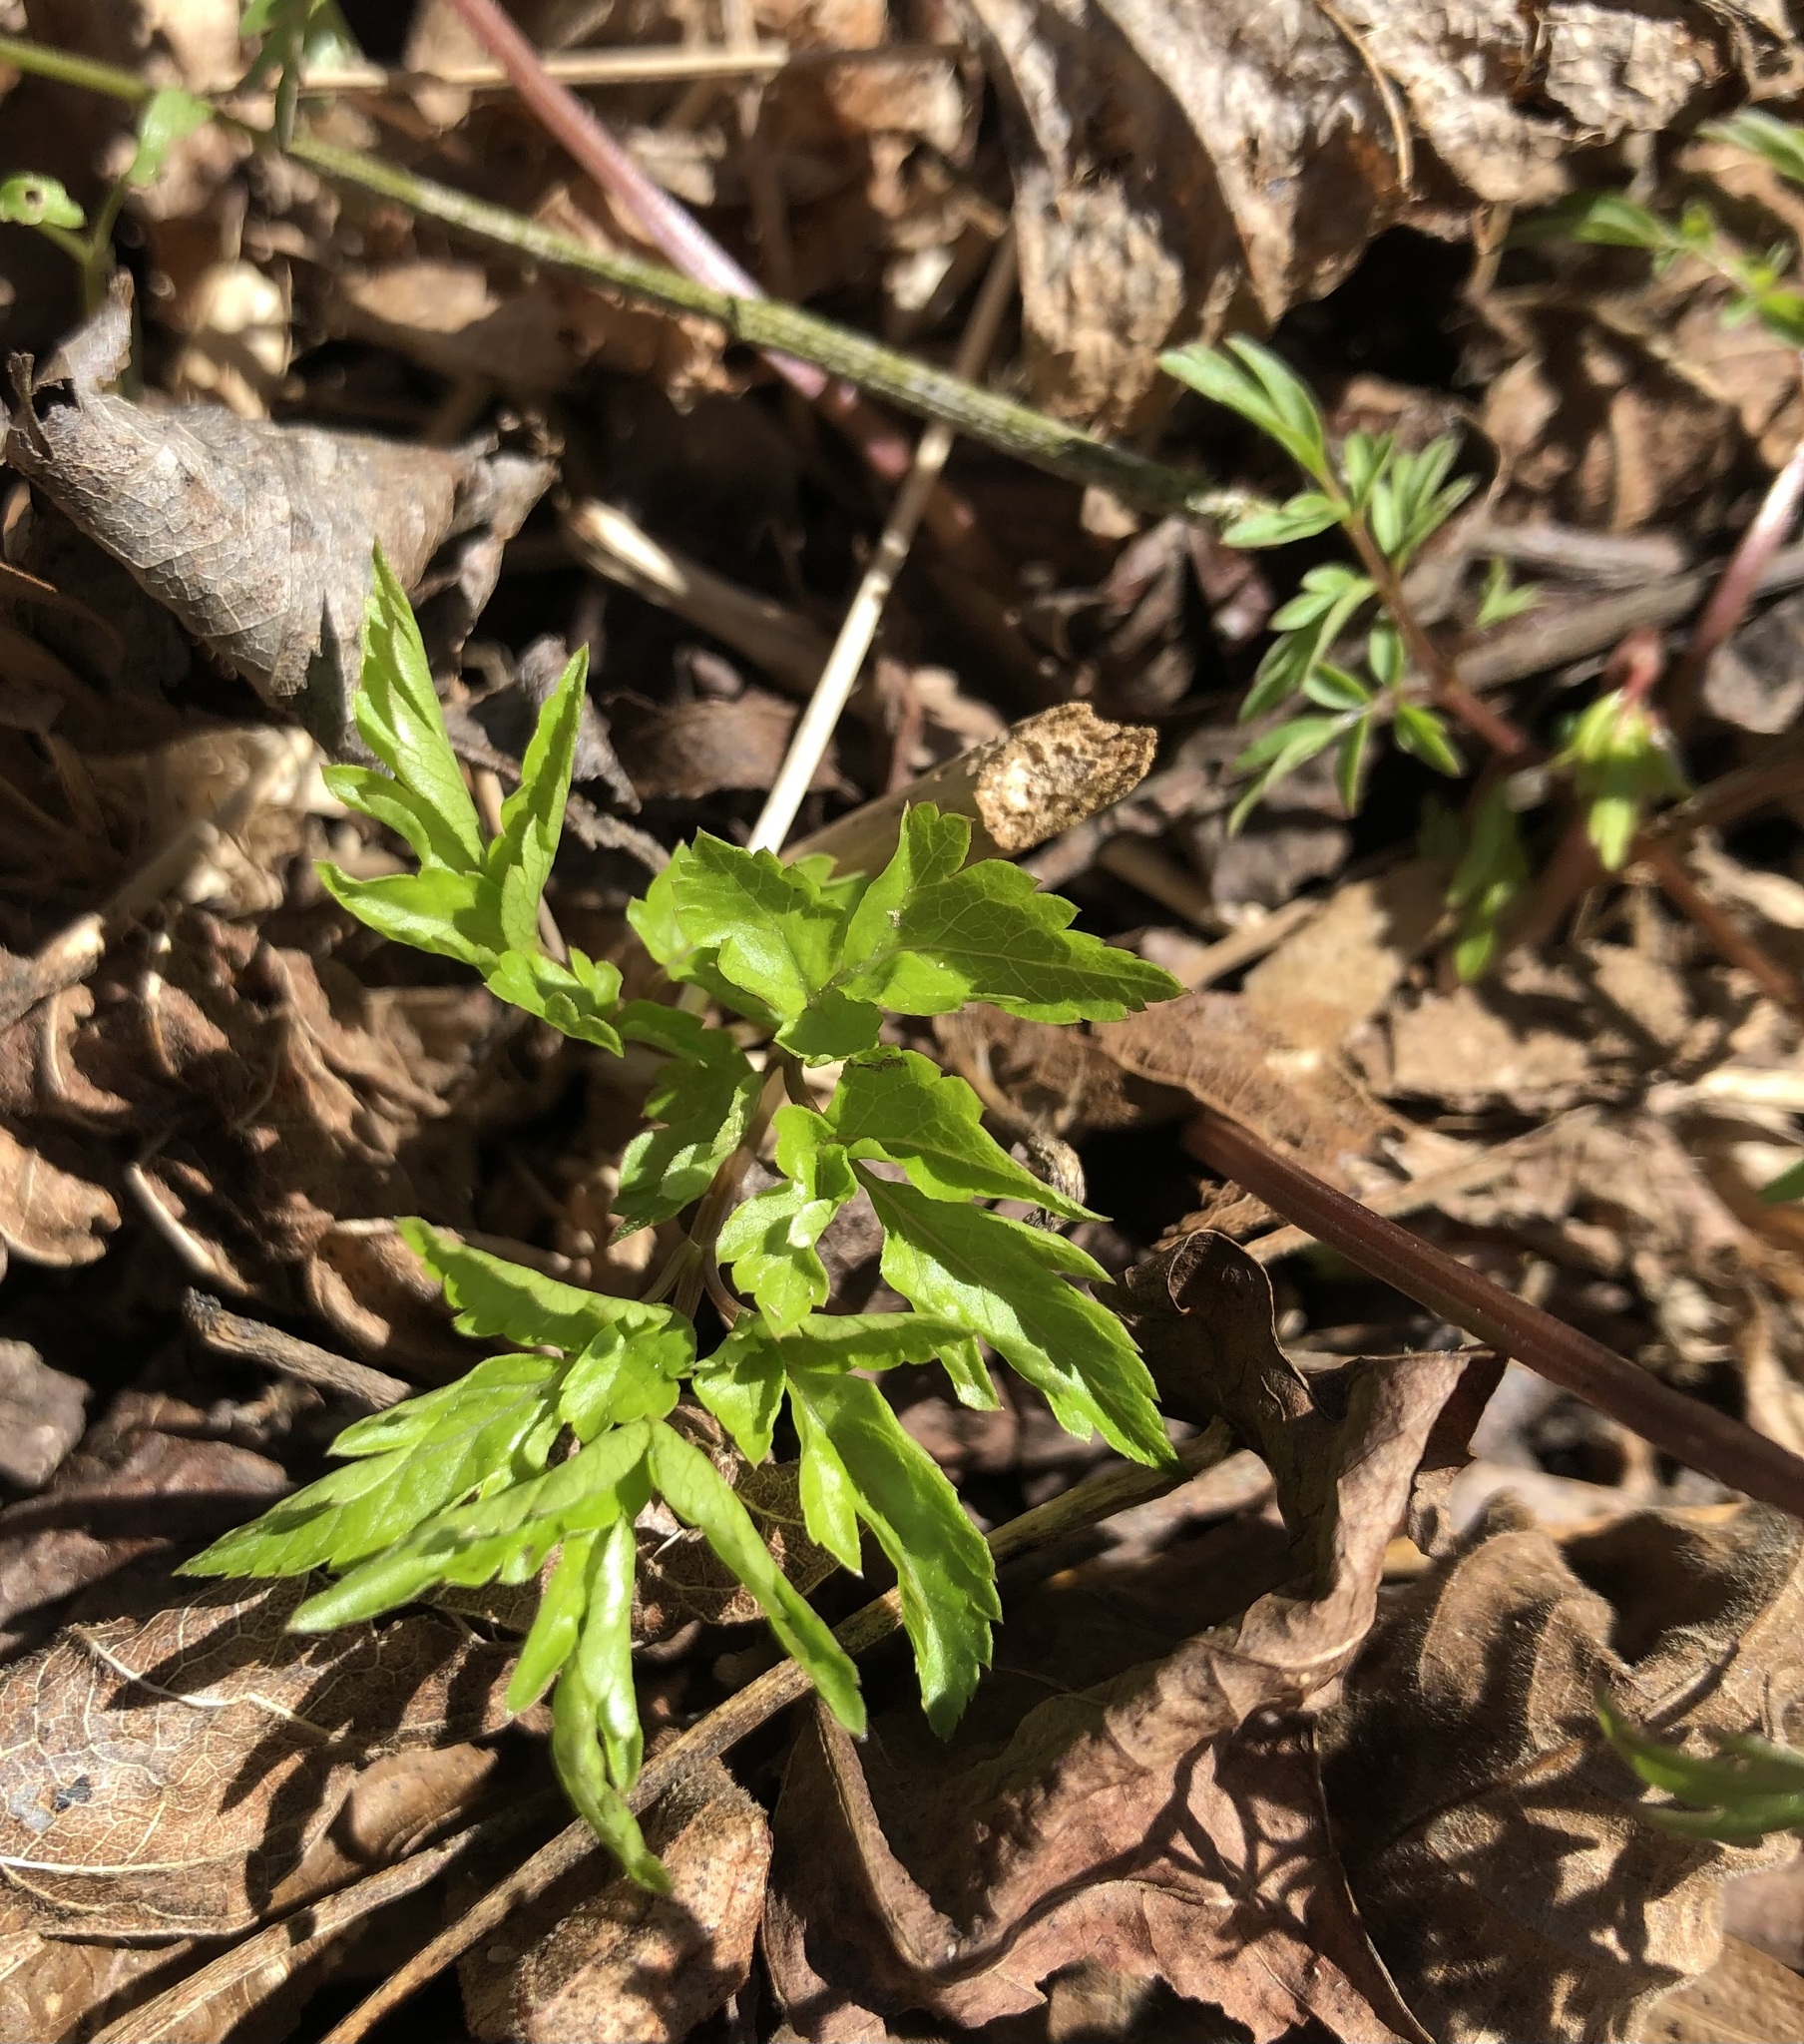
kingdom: Plantae
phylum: Tracheophyta
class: Magnoliopsida
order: Apiales
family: Apiaceae
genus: Erigenia
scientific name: Erigenia bulbosa
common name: Pepper-and-salt
